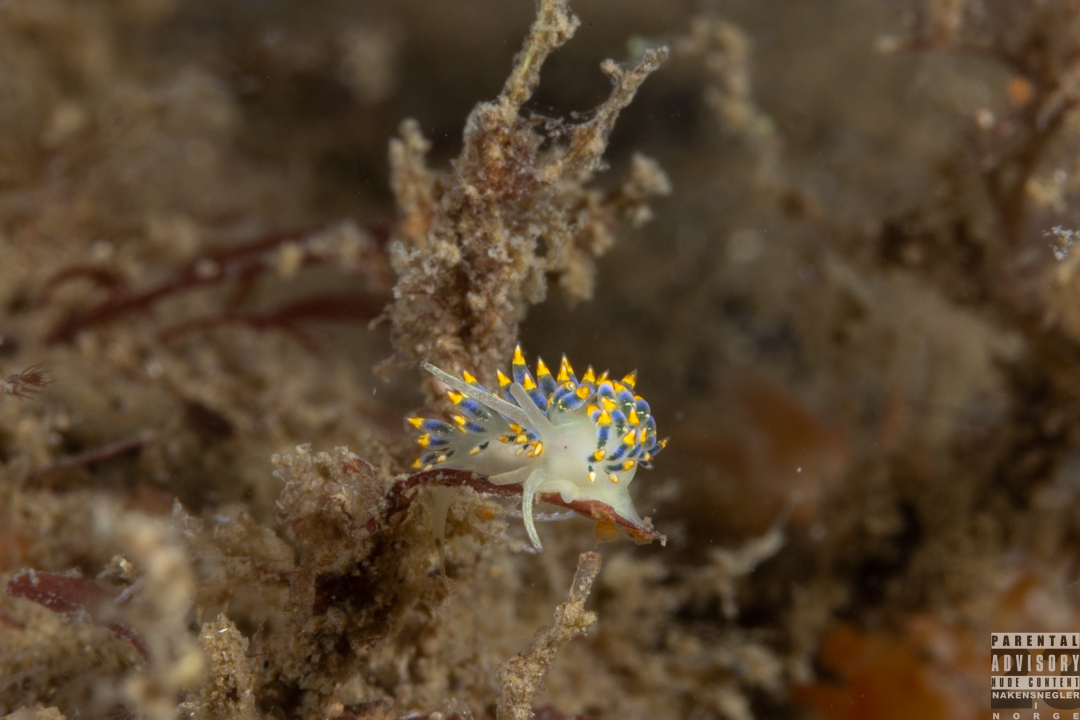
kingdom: Animalia
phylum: Mollusca
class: Gastropoda
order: Nudibranchia
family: Trinchesiidae
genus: Trinchesia
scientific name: Trinchesia cuanensis
